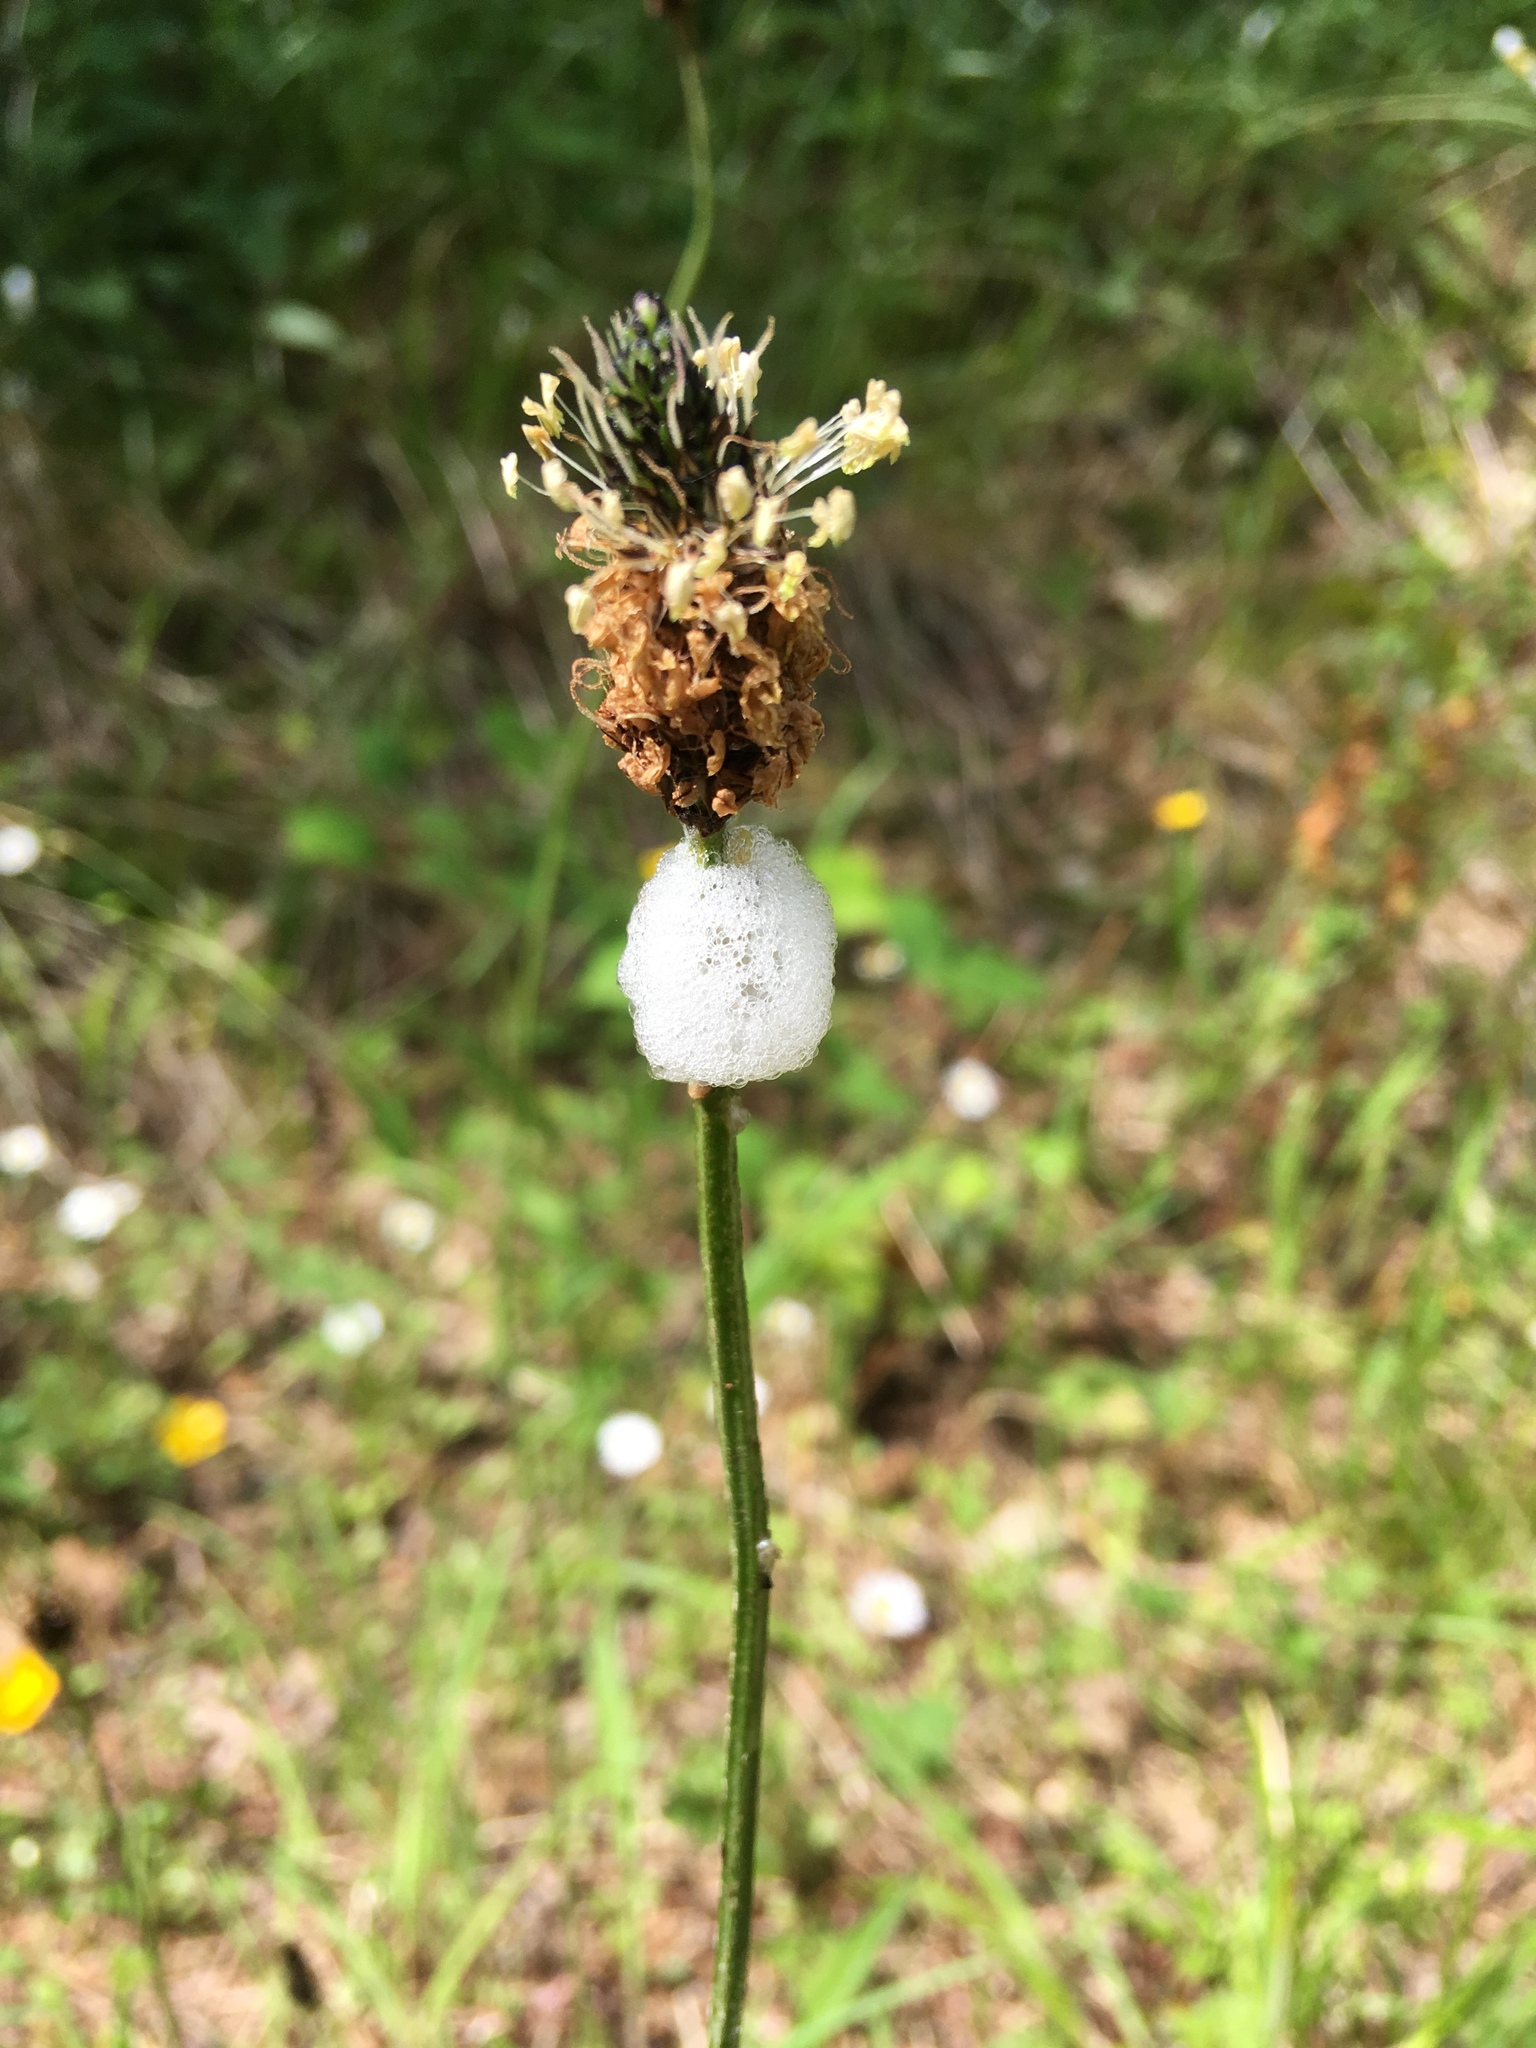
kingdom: Plantae
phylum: Tracheophyta
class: Magnoliopsida
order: Lamiales
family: Plantaginaceae
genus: Plantago
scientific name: Plantago lanceolata
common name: Ribwort plantain
